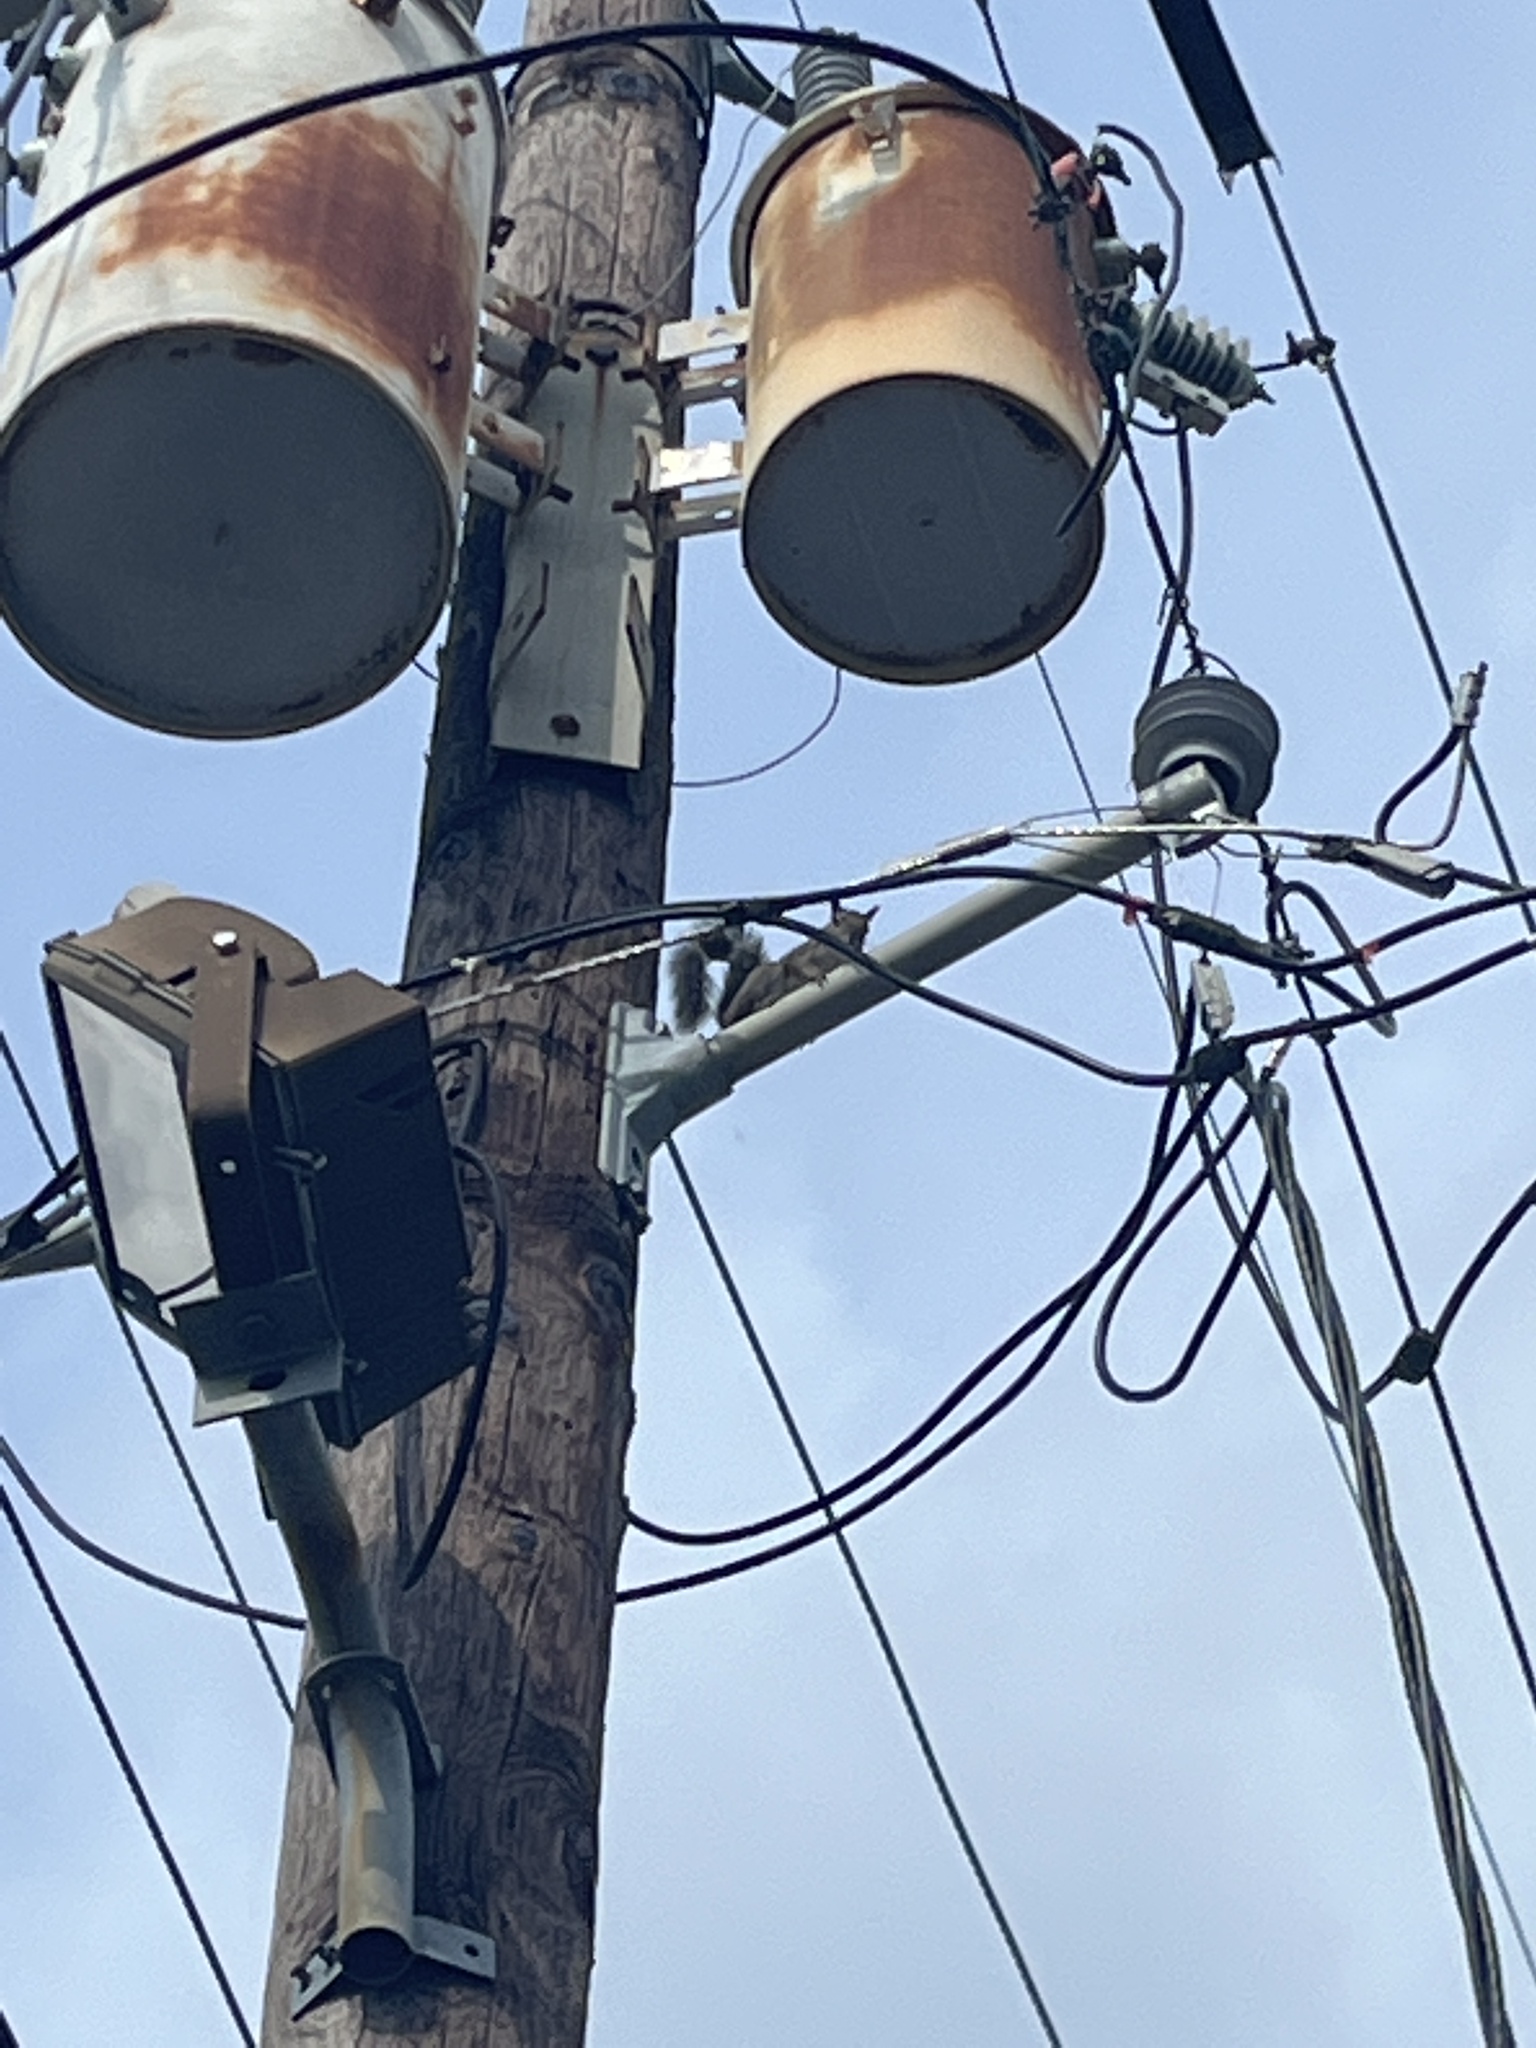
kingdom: Animalia
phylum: Chordata
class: Mammalia
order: Rodentia
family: Sciuridae
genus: Sciurus
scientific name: Sciurus carolinensis
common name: Eastern gray squirrel
